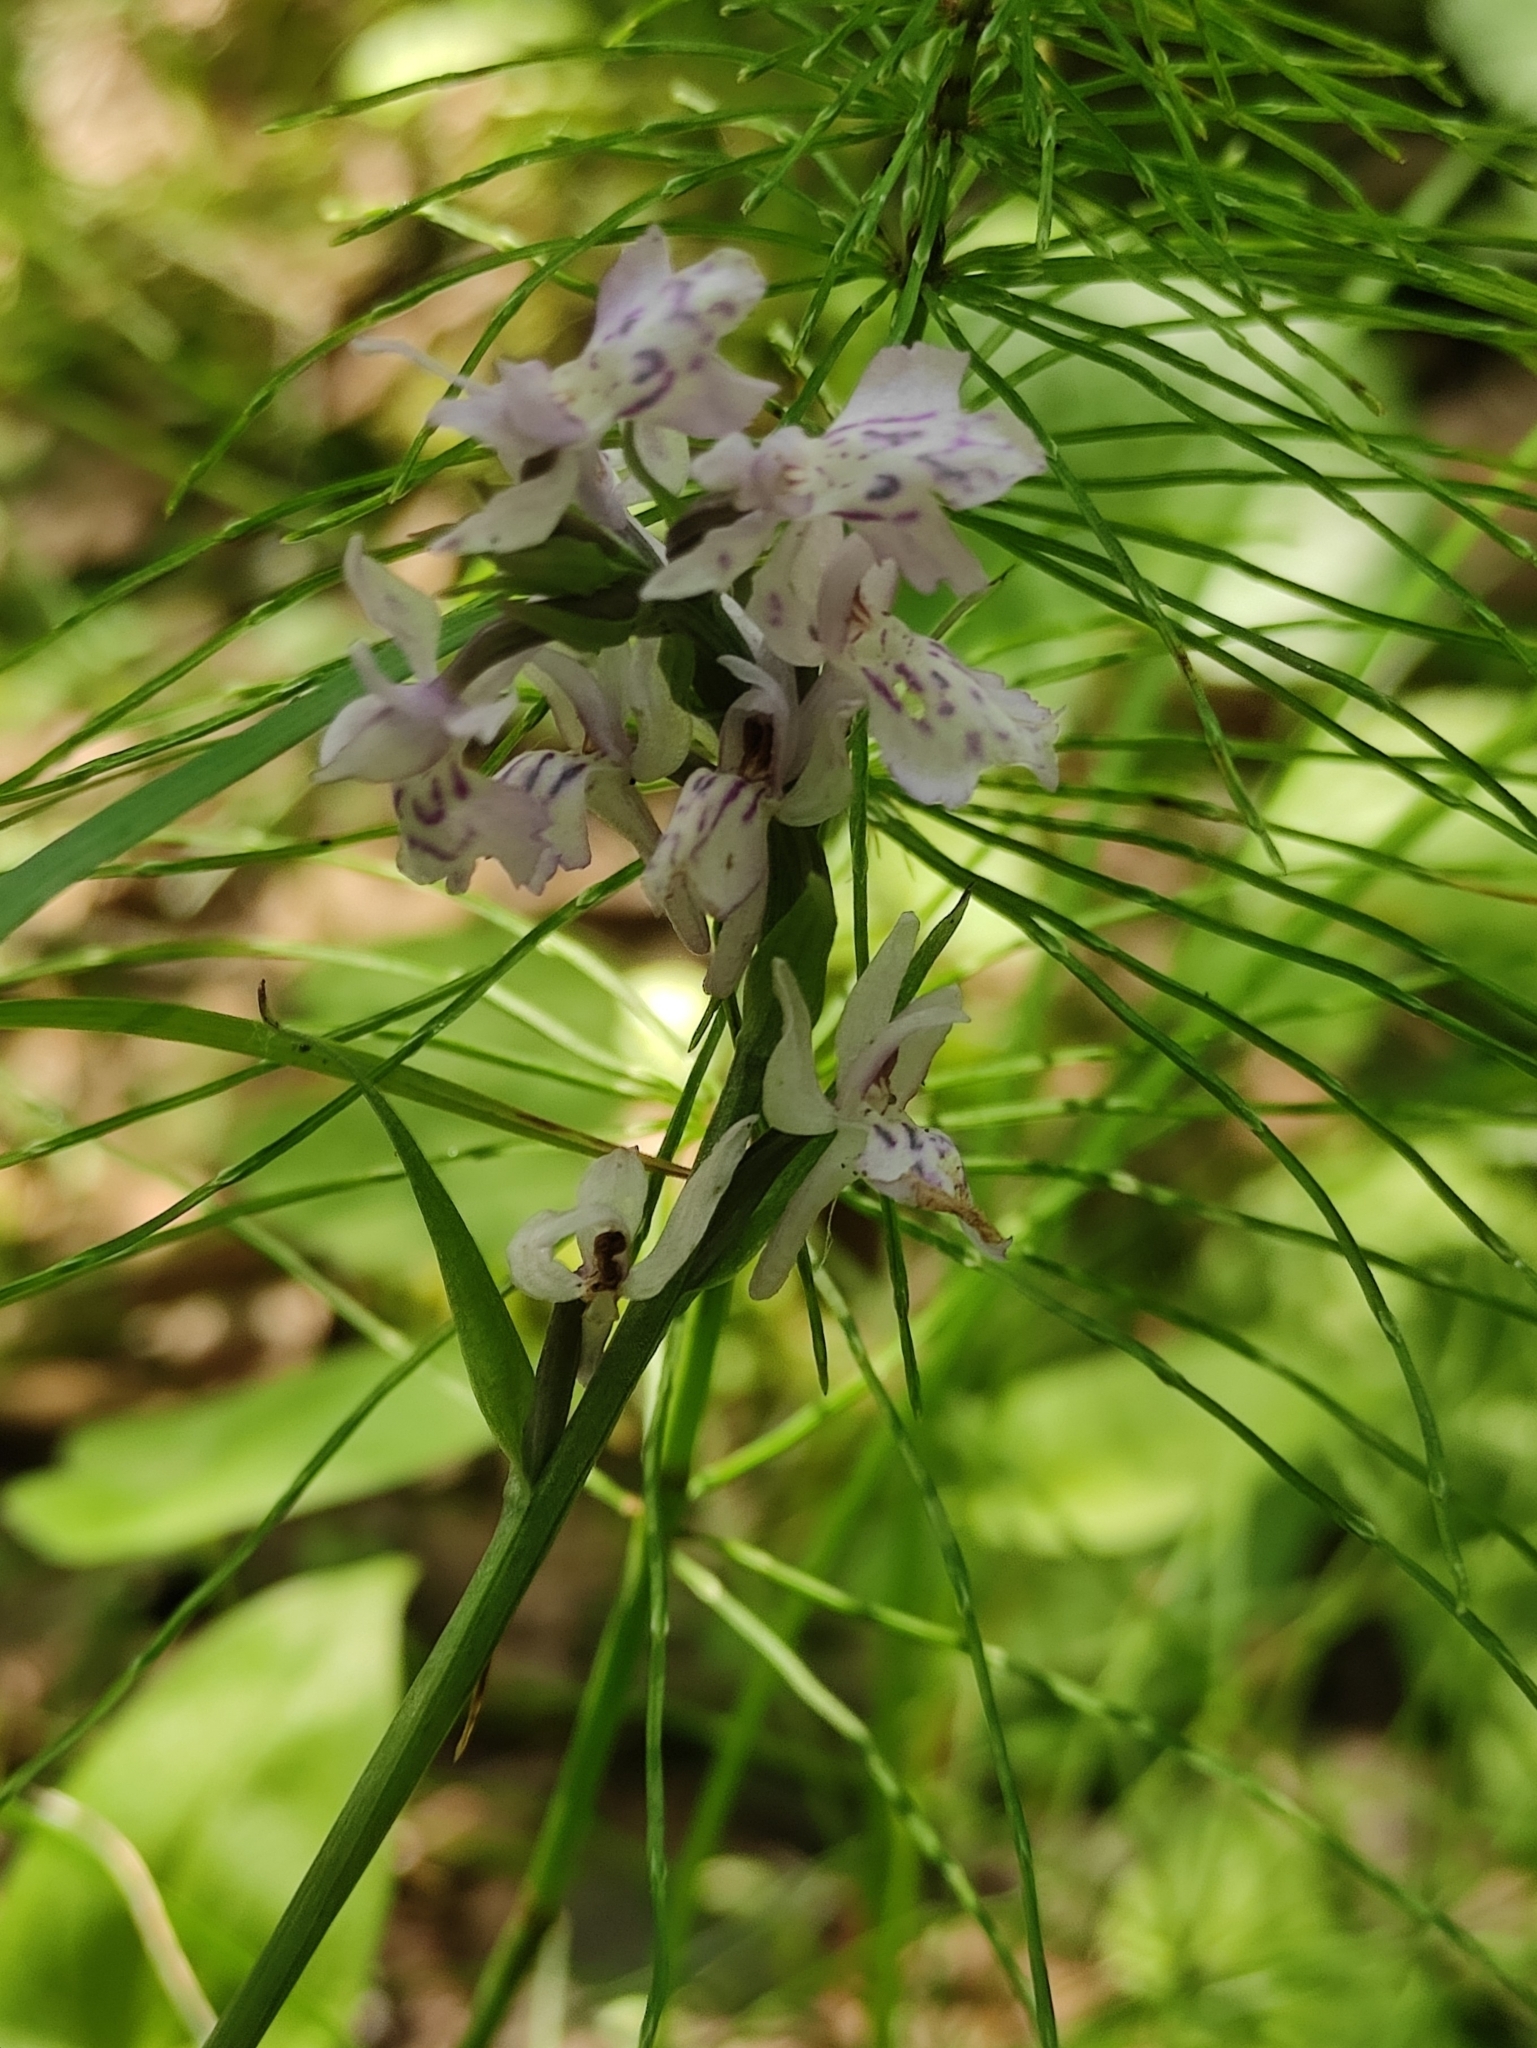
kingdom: Plantae
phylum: Tracheophyta
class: Liliopsida
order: Asparagales
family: Orchidaceae
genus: Dactylorhiza
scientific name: Dactylorhiza maculata
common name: Heath spotted-orchid
